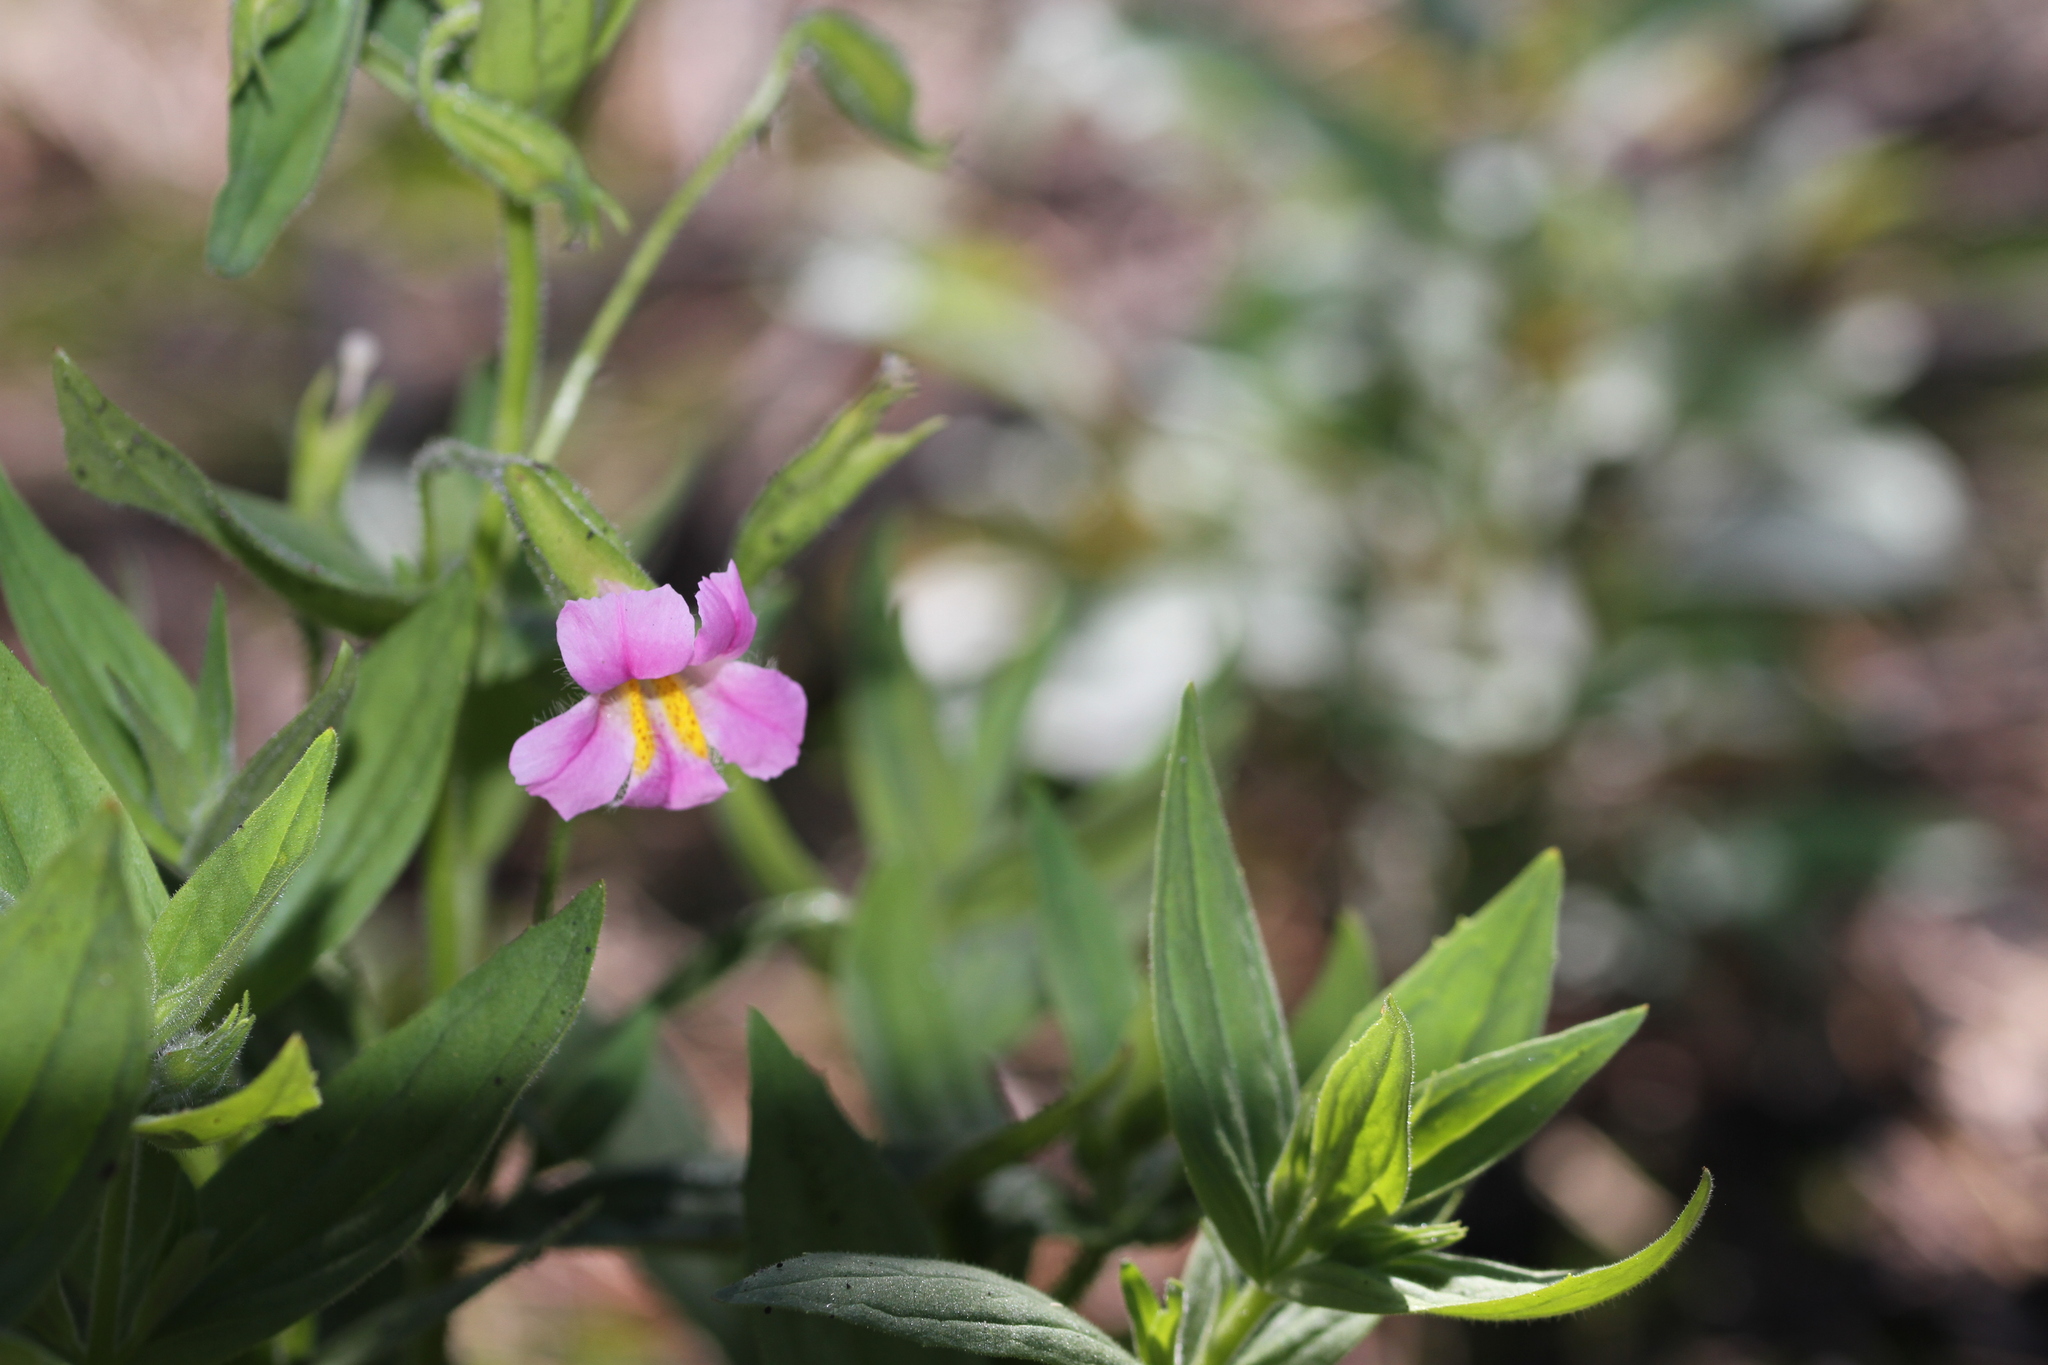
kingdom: Plantae
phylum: Tracheophyta
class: Magnoliopsida
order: Lamiales
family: Phrymaceae
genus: Erythranthe
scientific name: Erythranthe erubescens
